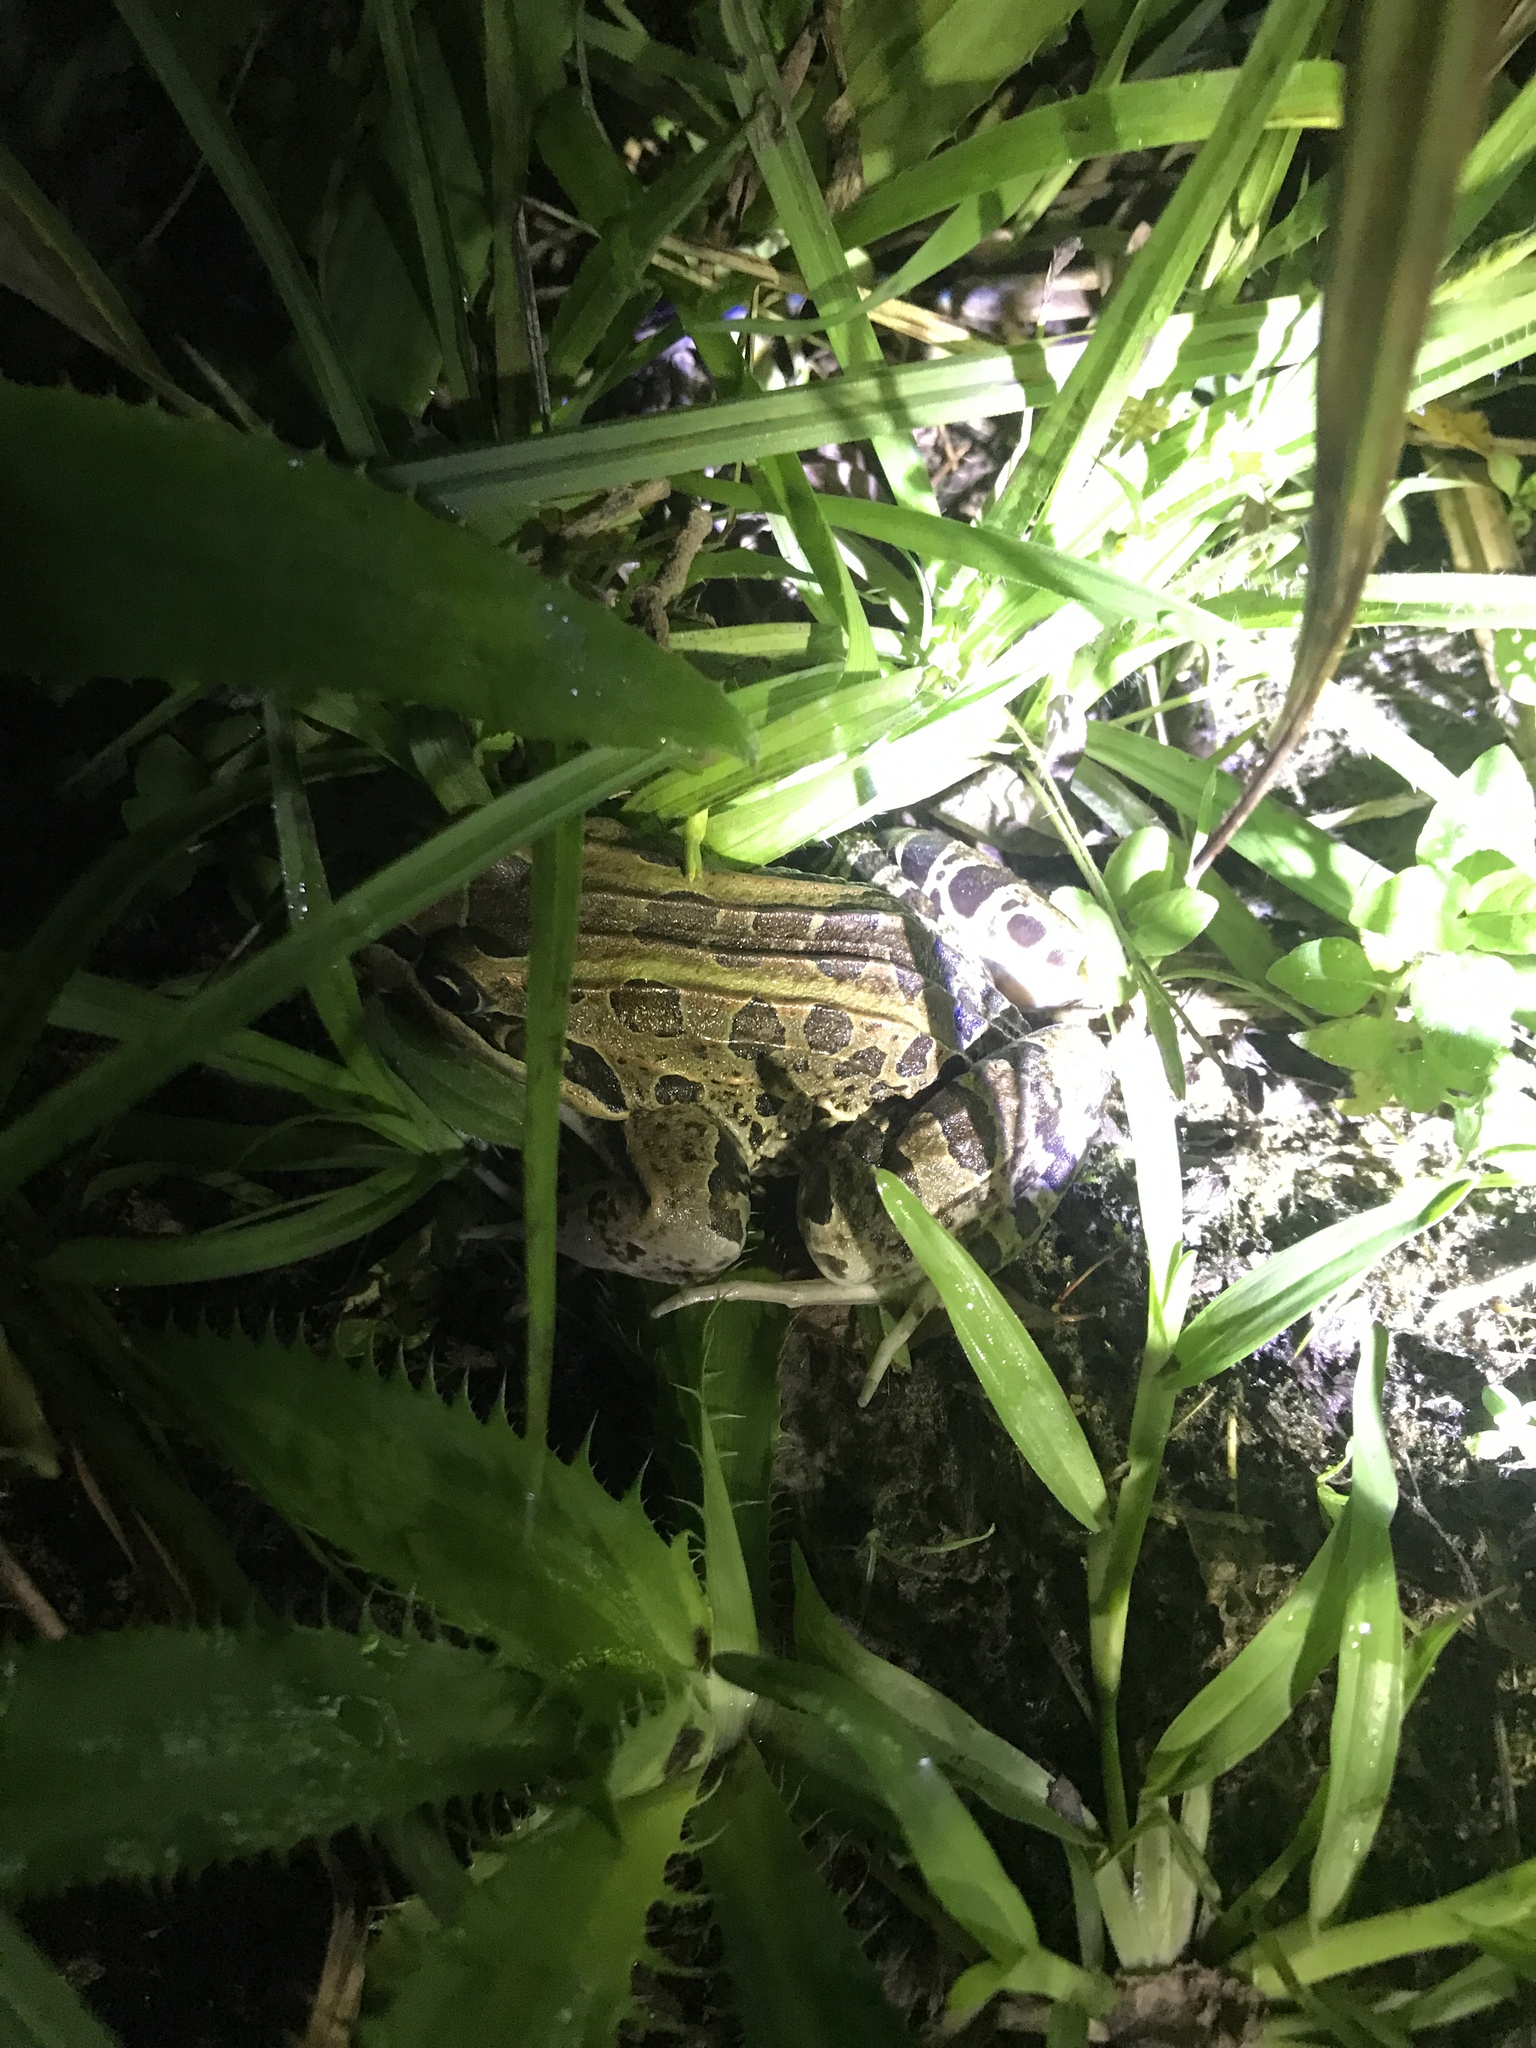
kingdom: Animalia
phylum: Chordata
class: Amphibia
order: Anura
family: Leptodactylidae
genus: Leptodactylus
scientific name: Leptodactylus luctator
